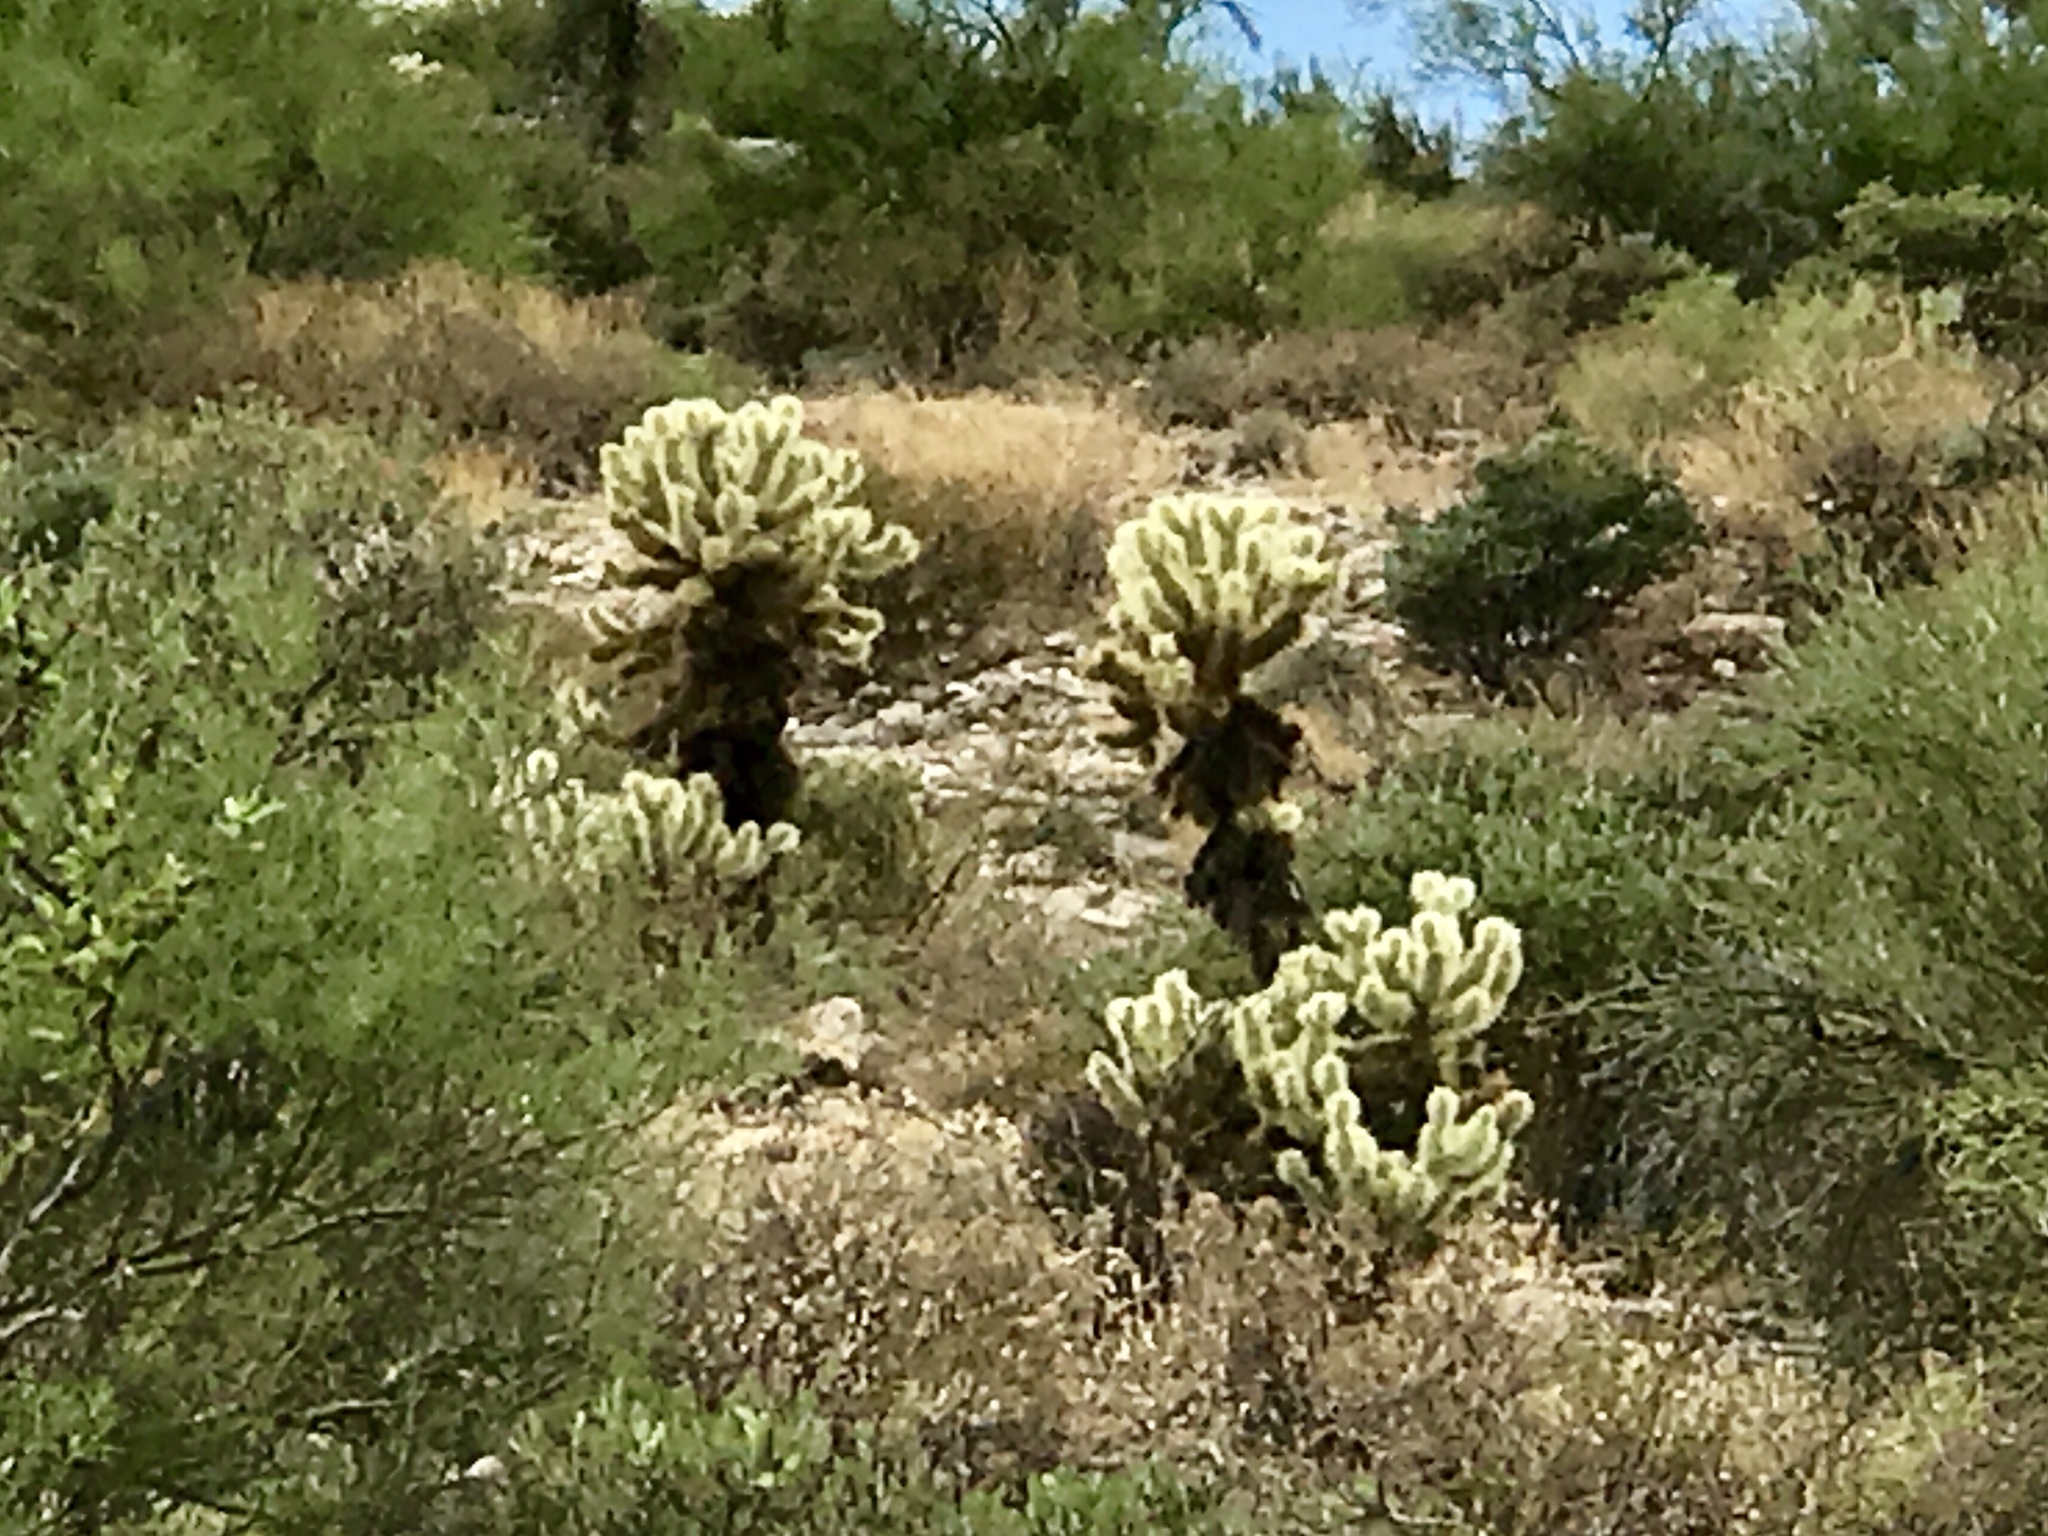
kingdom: Plantae
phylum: Tracheophyta
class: Magnoliopsida
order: Caryophyllales
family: Cactaceae
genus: Cylindropuntia
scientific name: Cylindropuntia fosbergii
